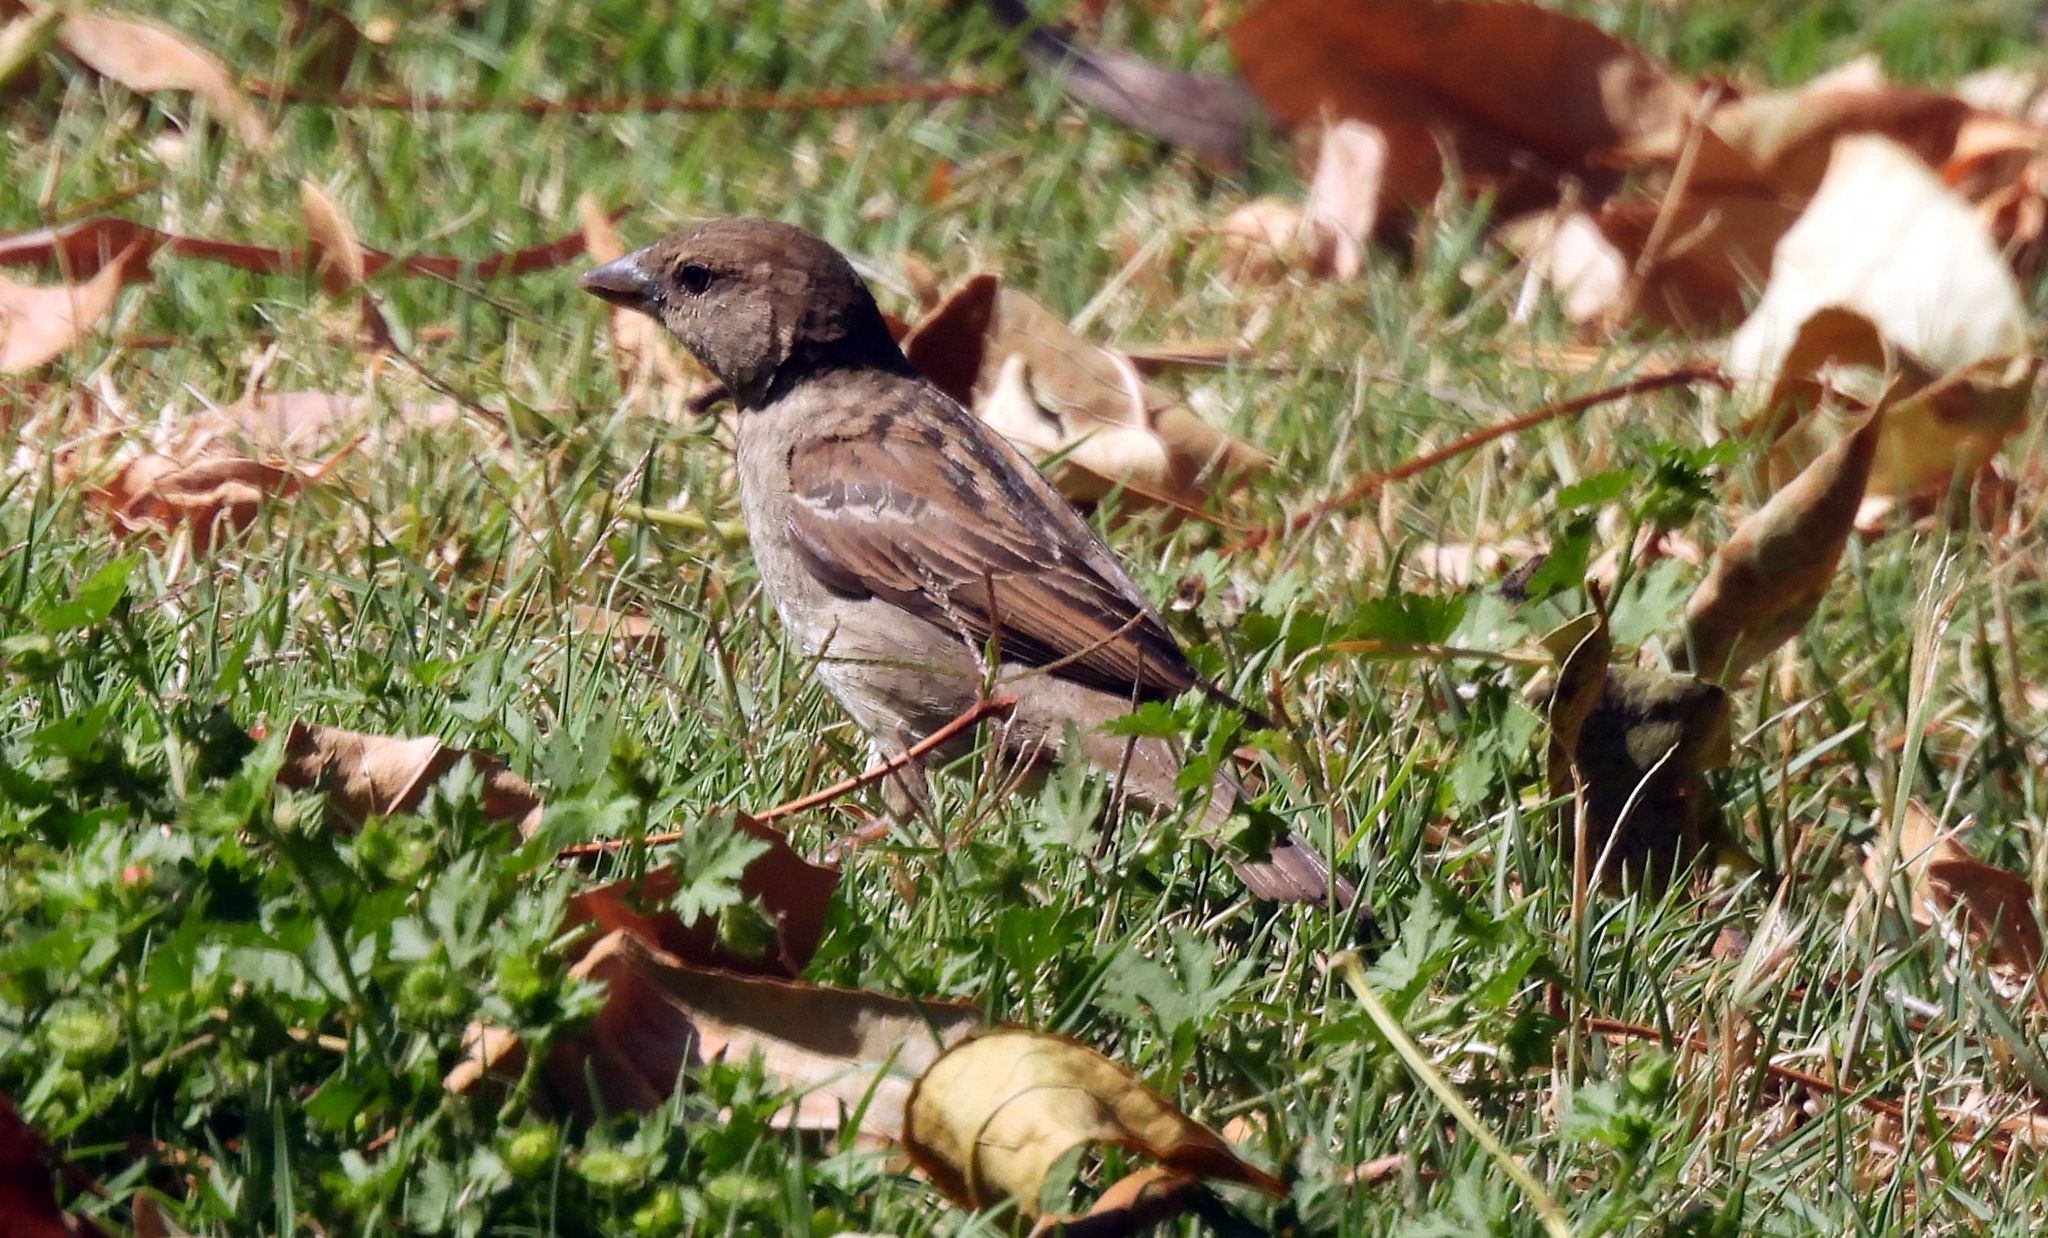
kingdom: Animalia
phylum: Chordata
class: Aves
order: Passeriformes
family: Passeridae
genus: Passer
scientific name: Passer domesticus
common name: House sparrow
